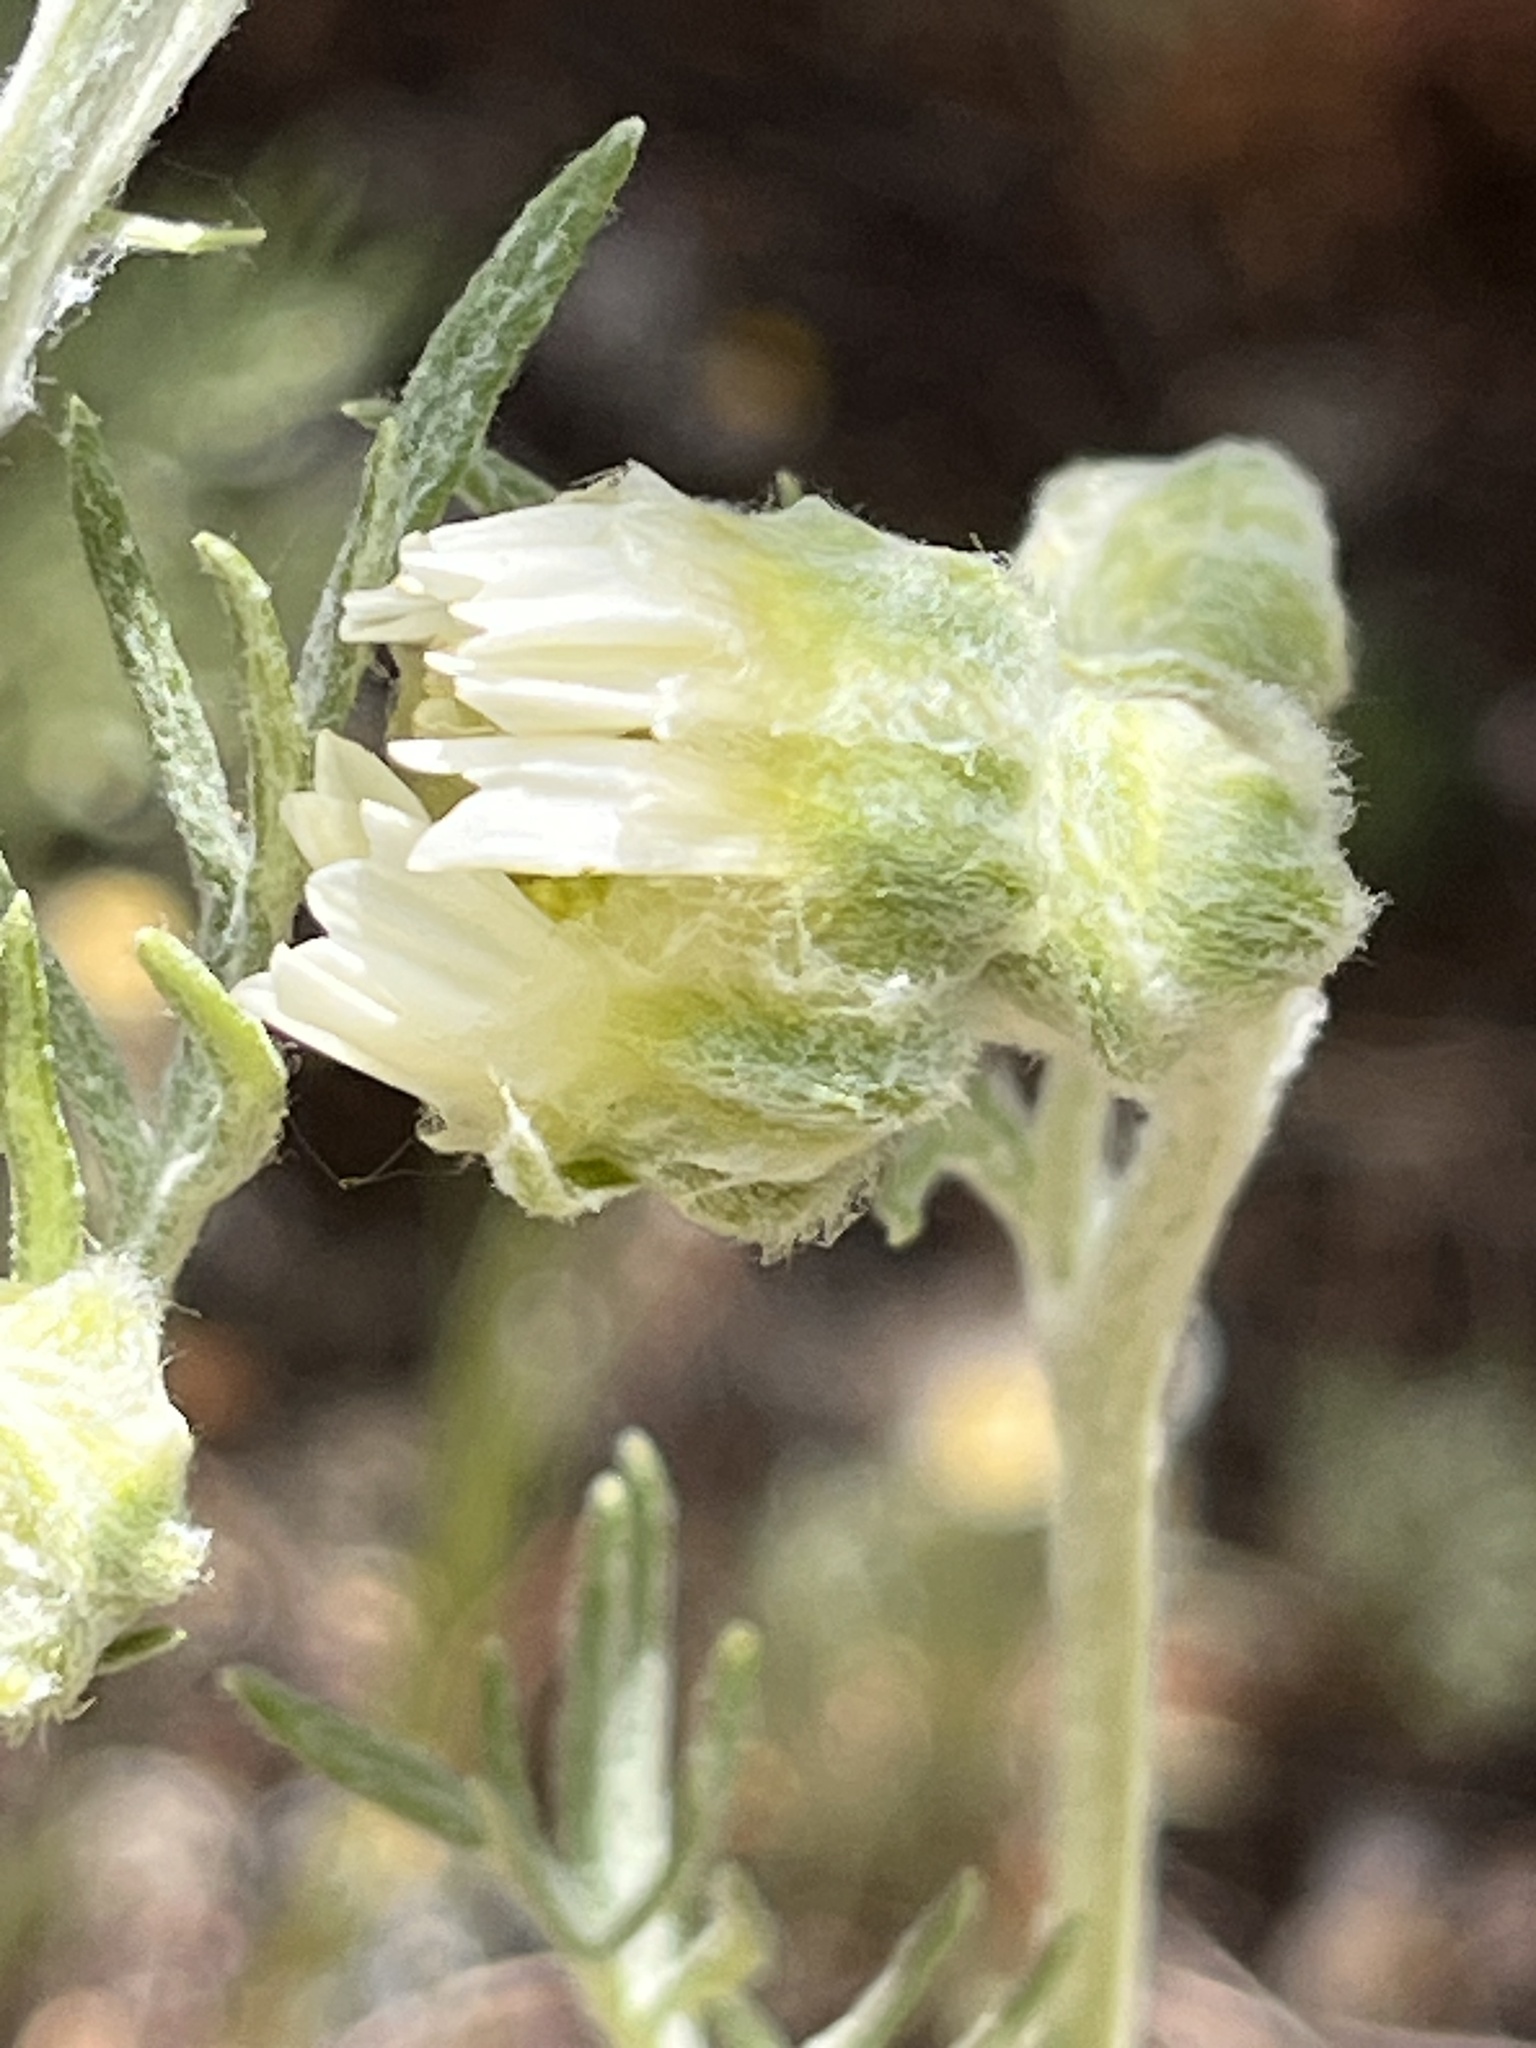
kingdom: Plantae
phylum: Tracheophyta
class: Magnoliopsida
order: Asterales
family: Asteraceae
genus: Hymenopappus
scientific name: Hymenopappus newberryi
